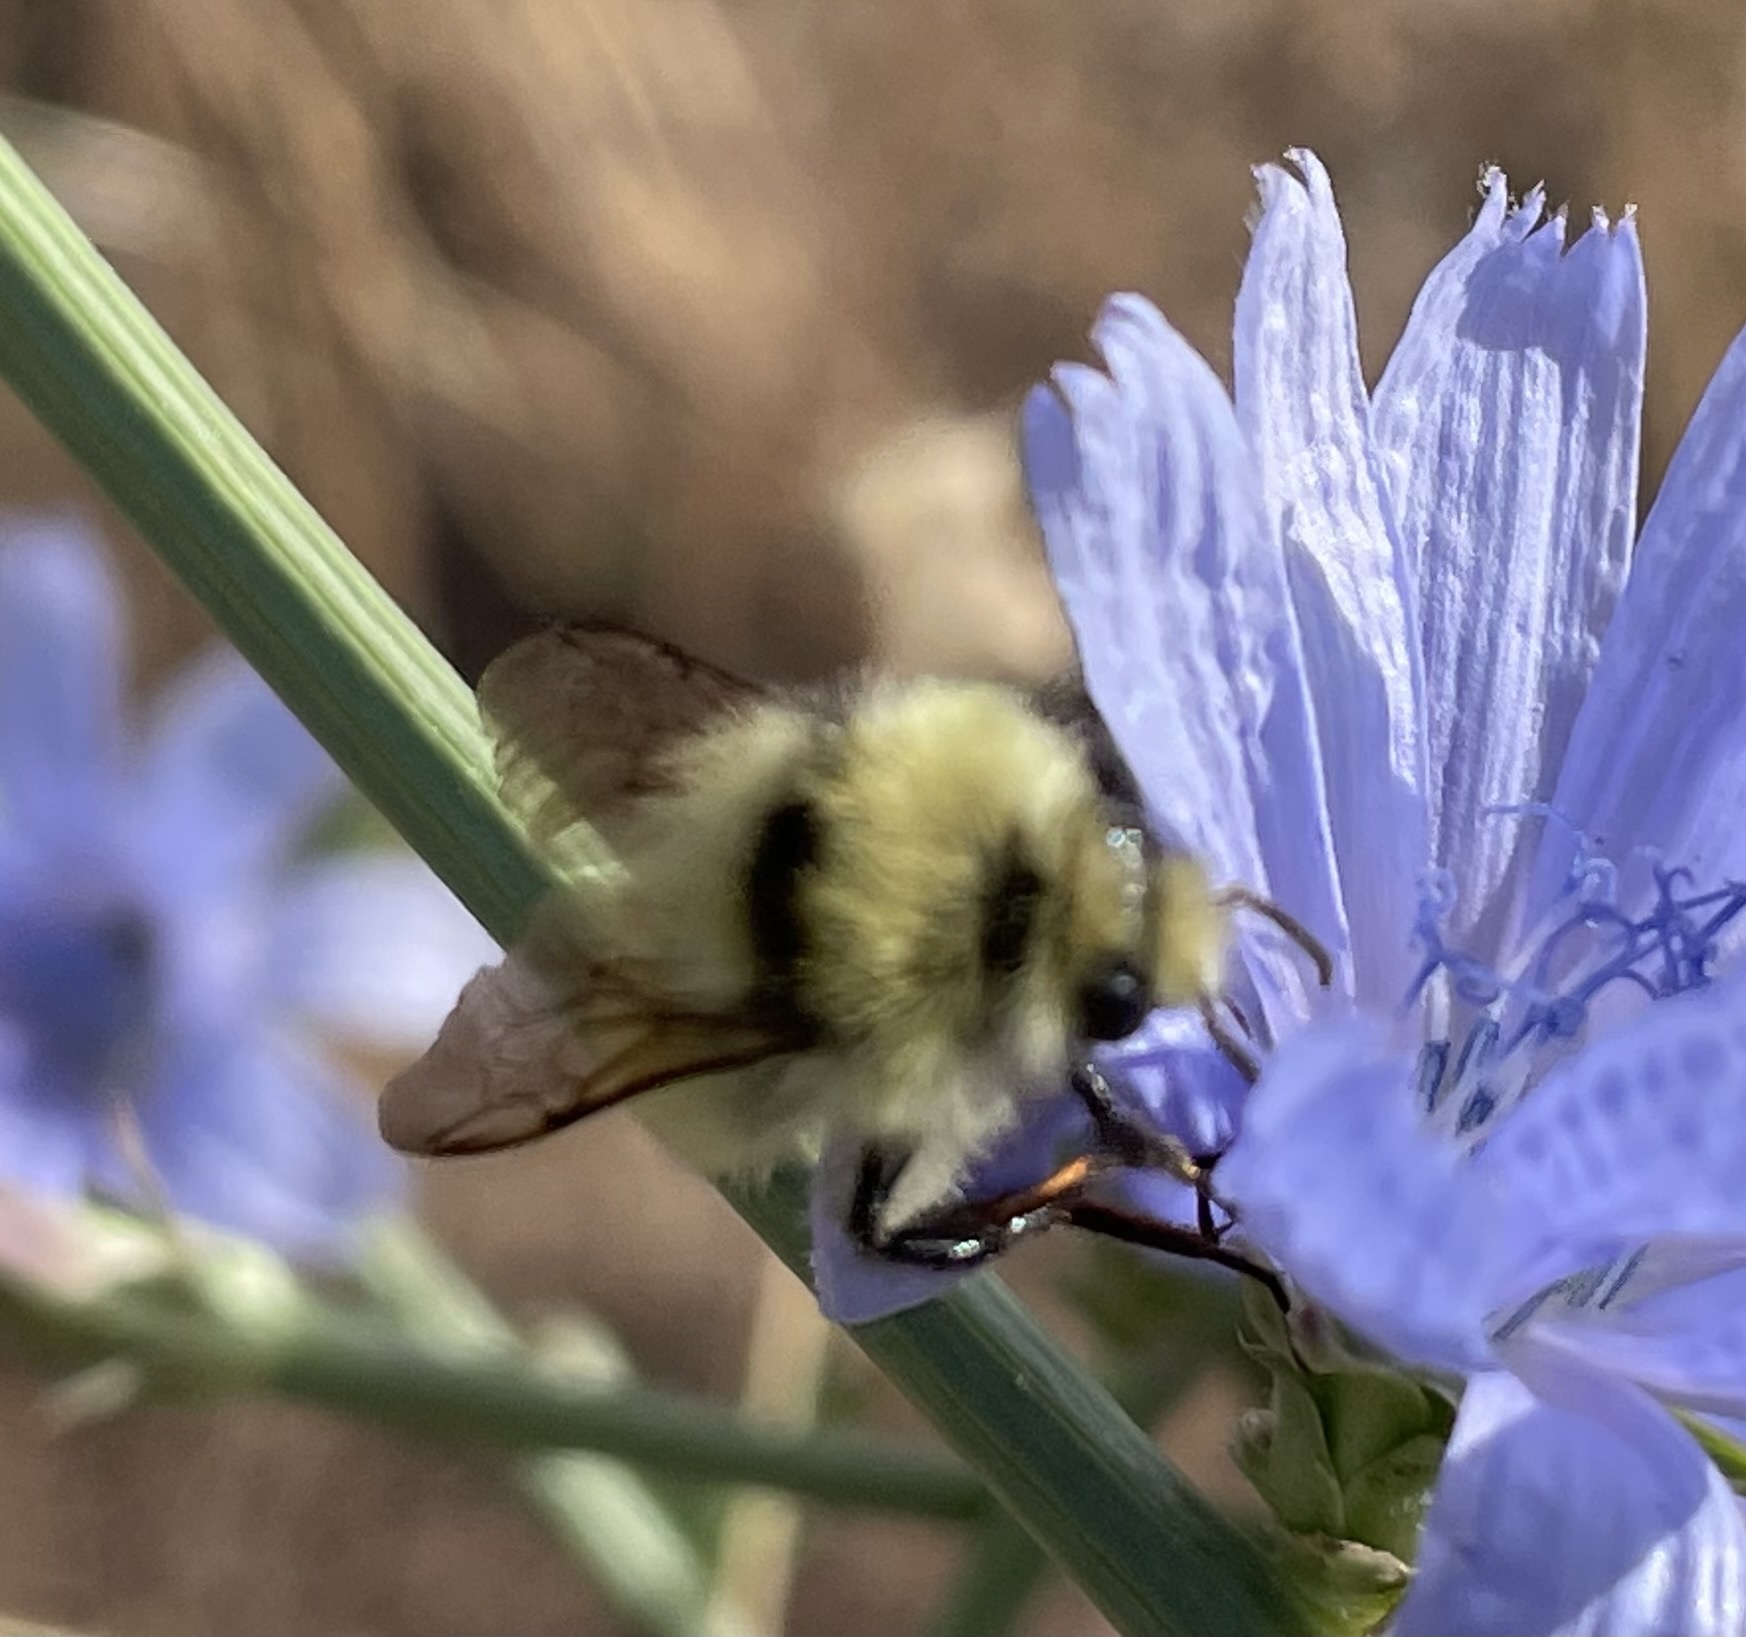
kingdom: Animalia
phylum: Arthropoda
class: Insecta
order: Hymenoptera
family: Apidae
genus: Bombus
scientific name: Bombus centralis
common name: Central bumble bee
